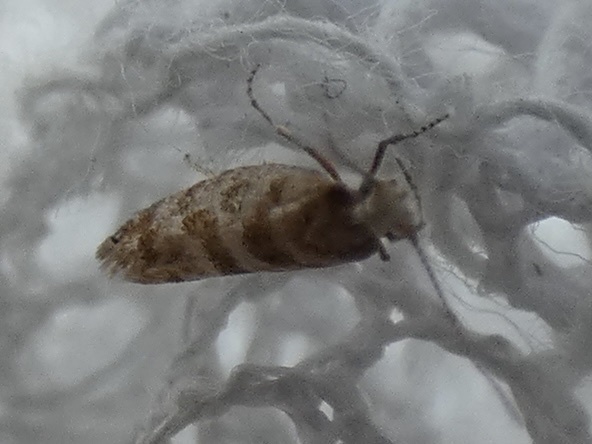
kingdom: Animalia
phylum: Arthropoda
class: Insecta
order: Lepidoptera
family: Argyresthiidae
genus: Argyresthia
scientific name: Argyresthia cupressella
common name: Cypress tip moth
